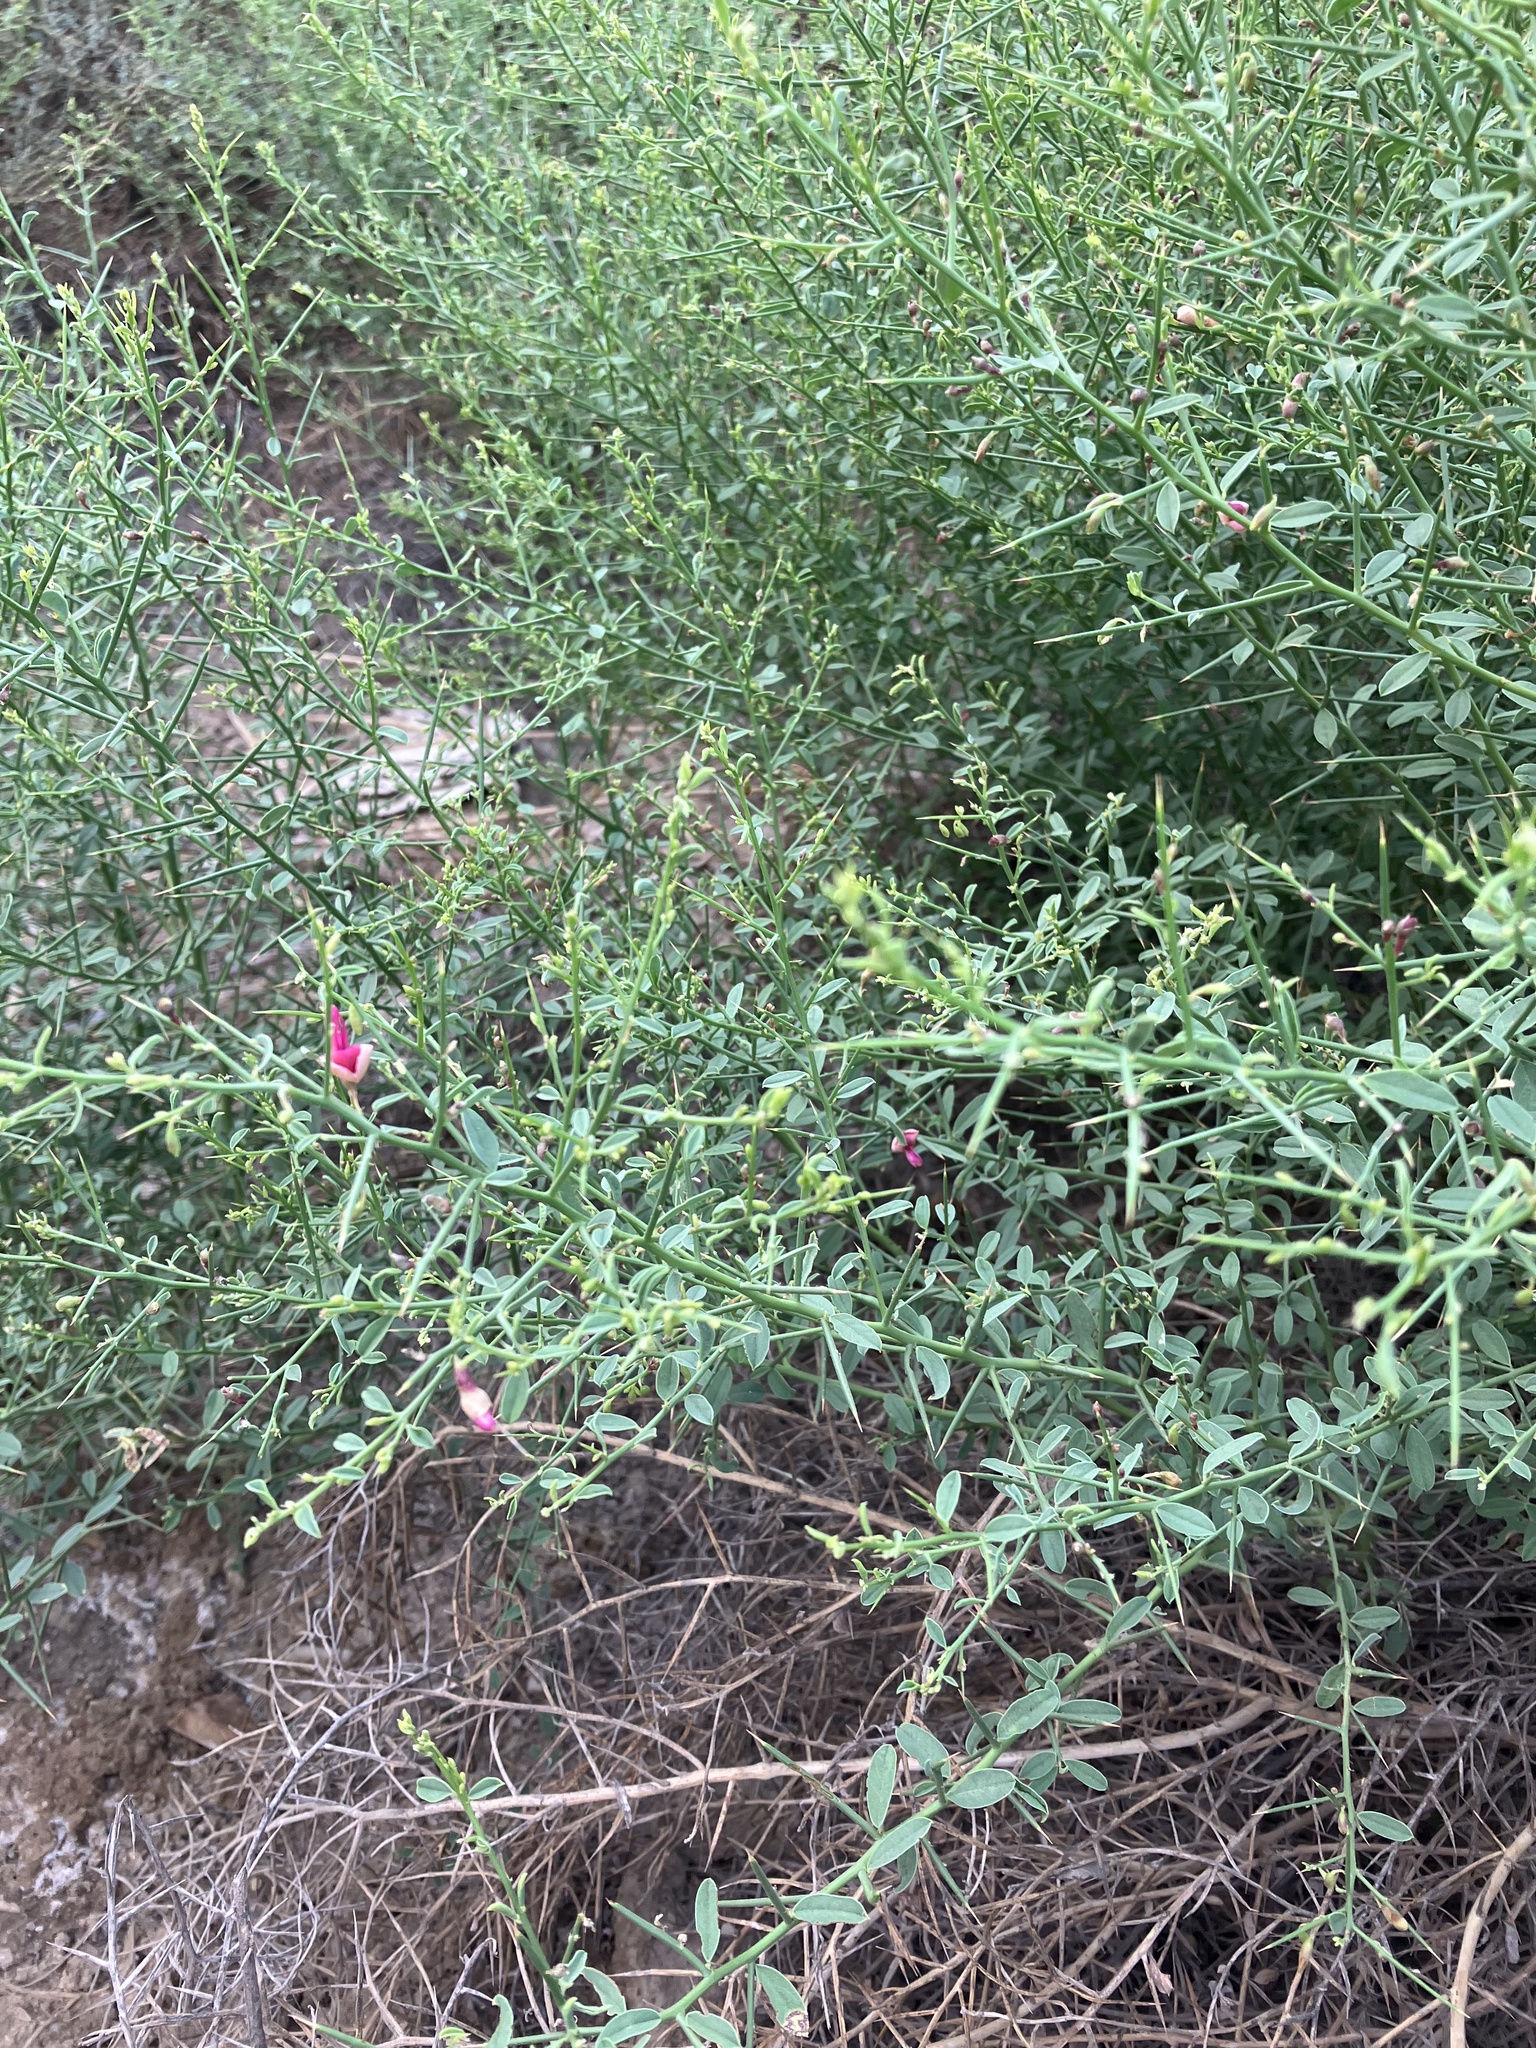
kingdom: Plantae
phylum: Tracheophyta
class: Magnoliopsida
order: Fabales
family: Fabaceae
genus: Alhagi
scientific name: Alhagi graecorum
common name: Persian mannaplant
